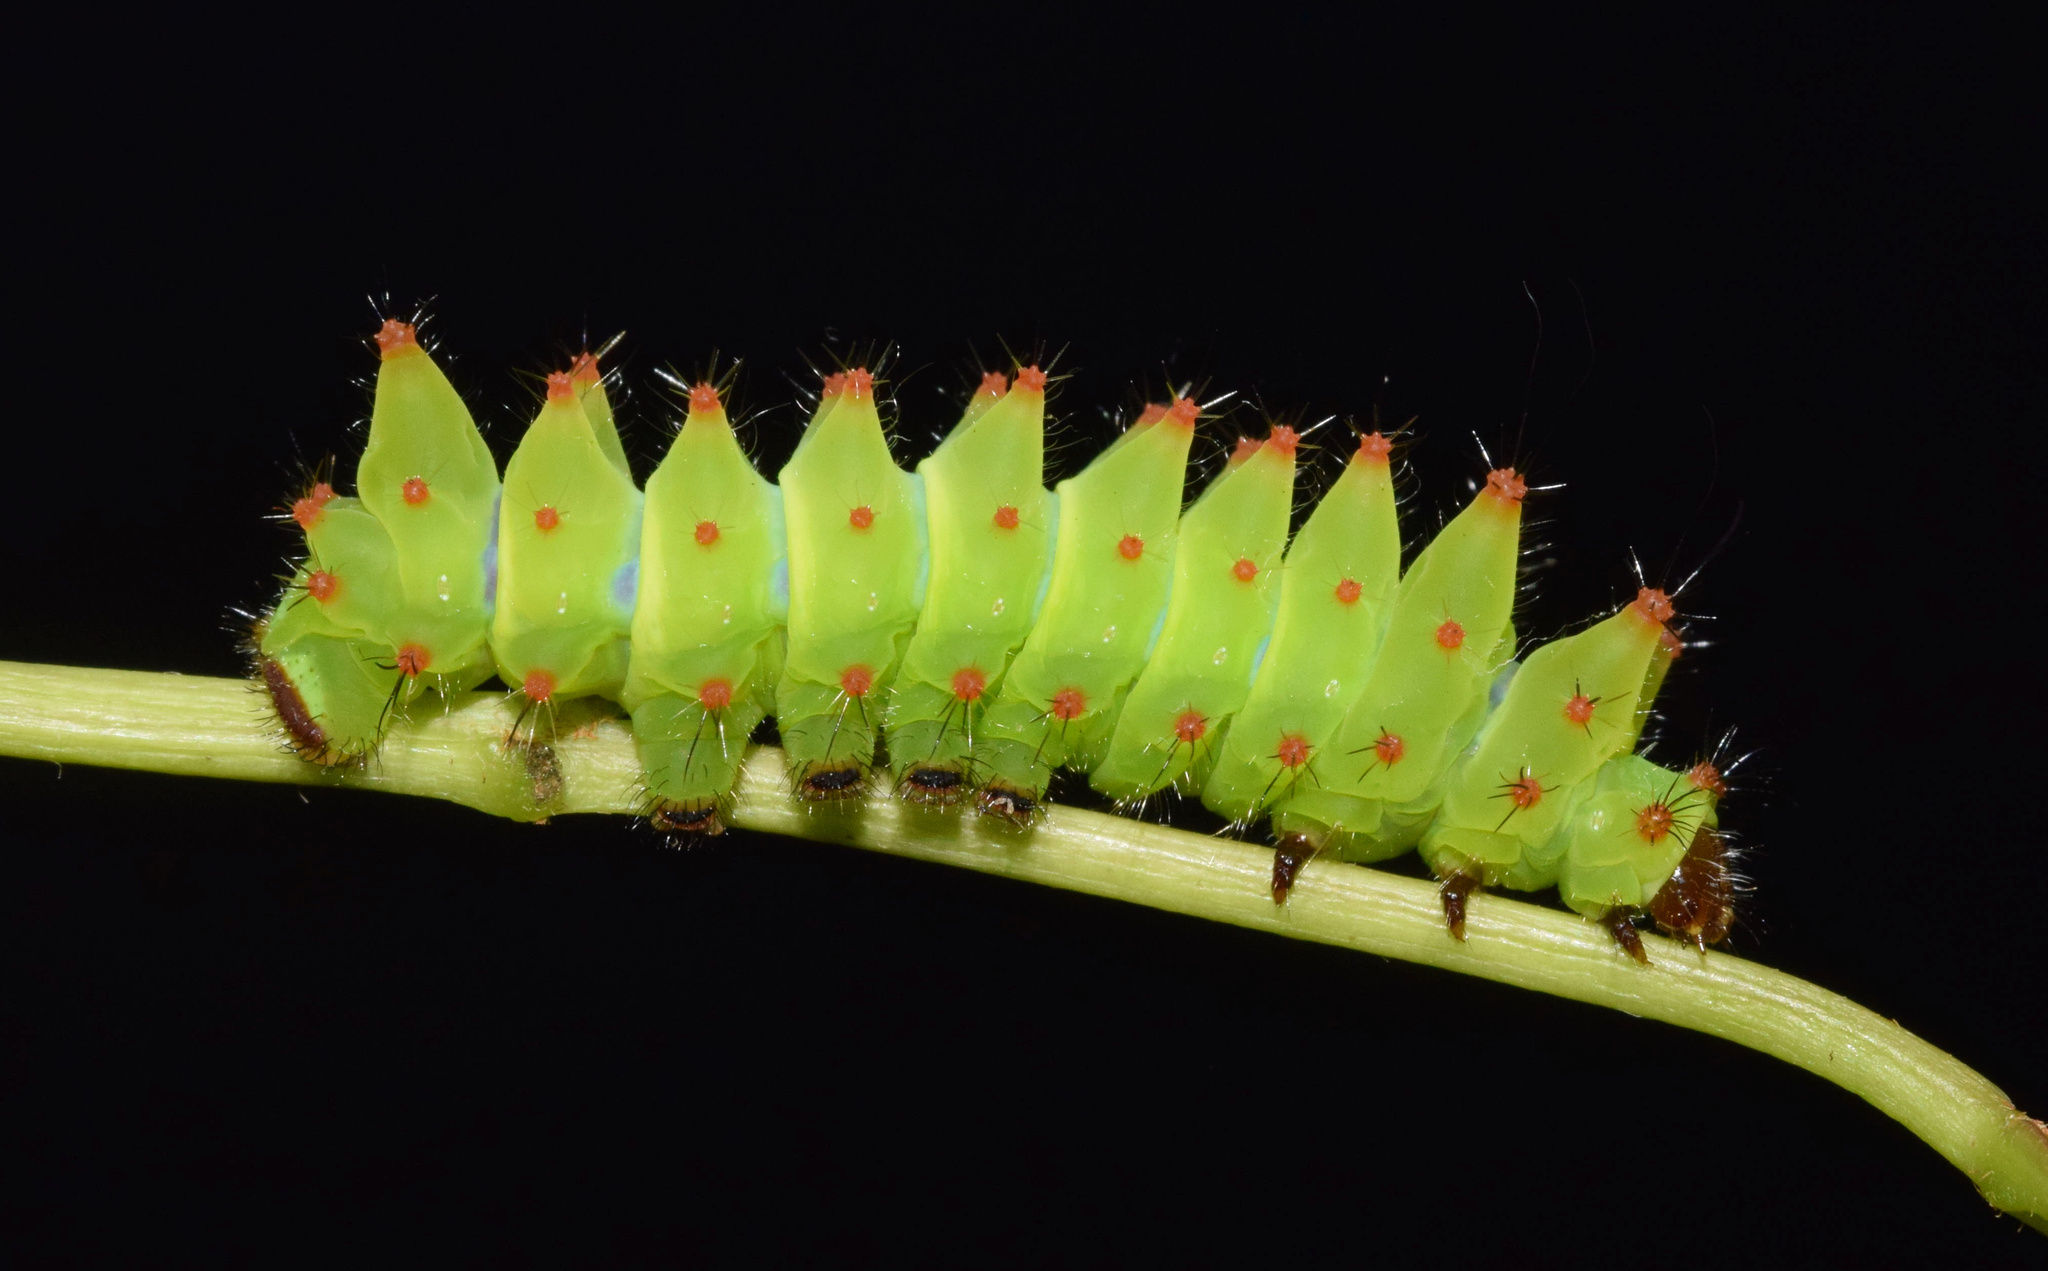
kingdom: Animalia
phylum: Arthropoda
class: Insecta
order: Lepidoptera
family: Saturniidae
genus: Argema
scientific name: Argema mimosae
